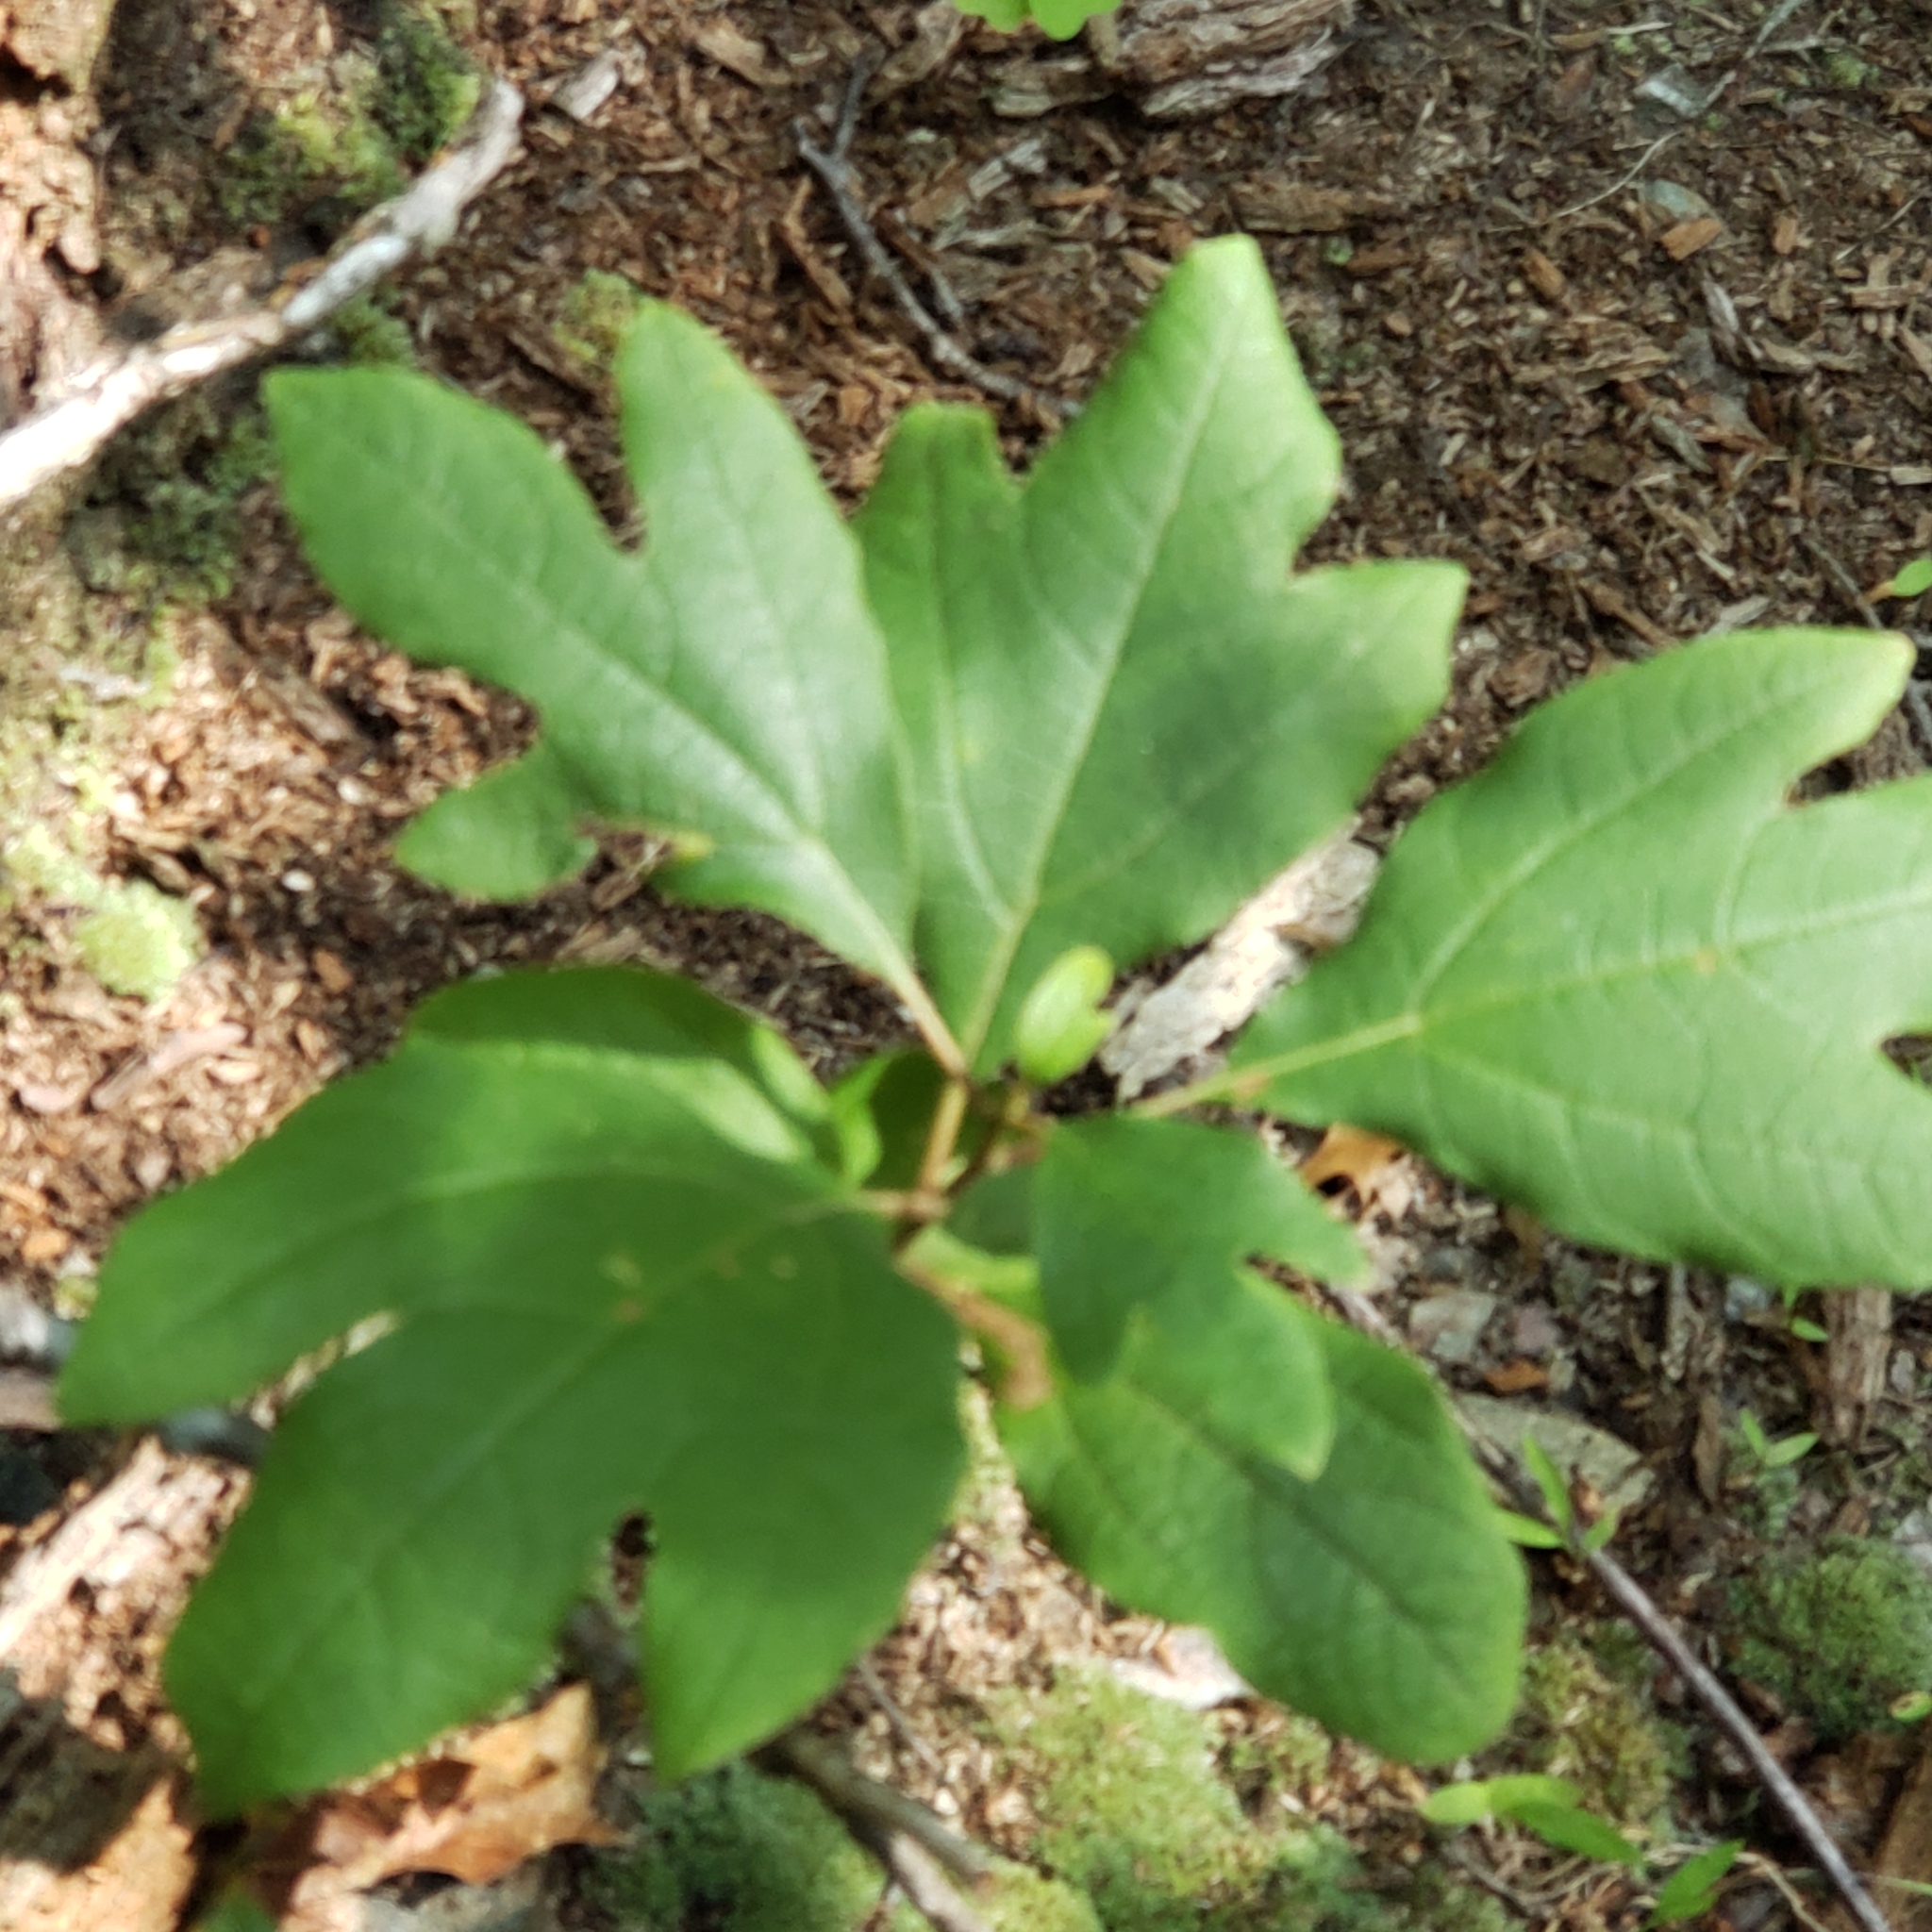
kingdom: Plantae
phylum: Tracheophyta
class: Magnoliopsida
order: Laurales
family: Lauraceae
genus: Sassafras
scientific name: Sassafras albidum
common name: Sassafras
